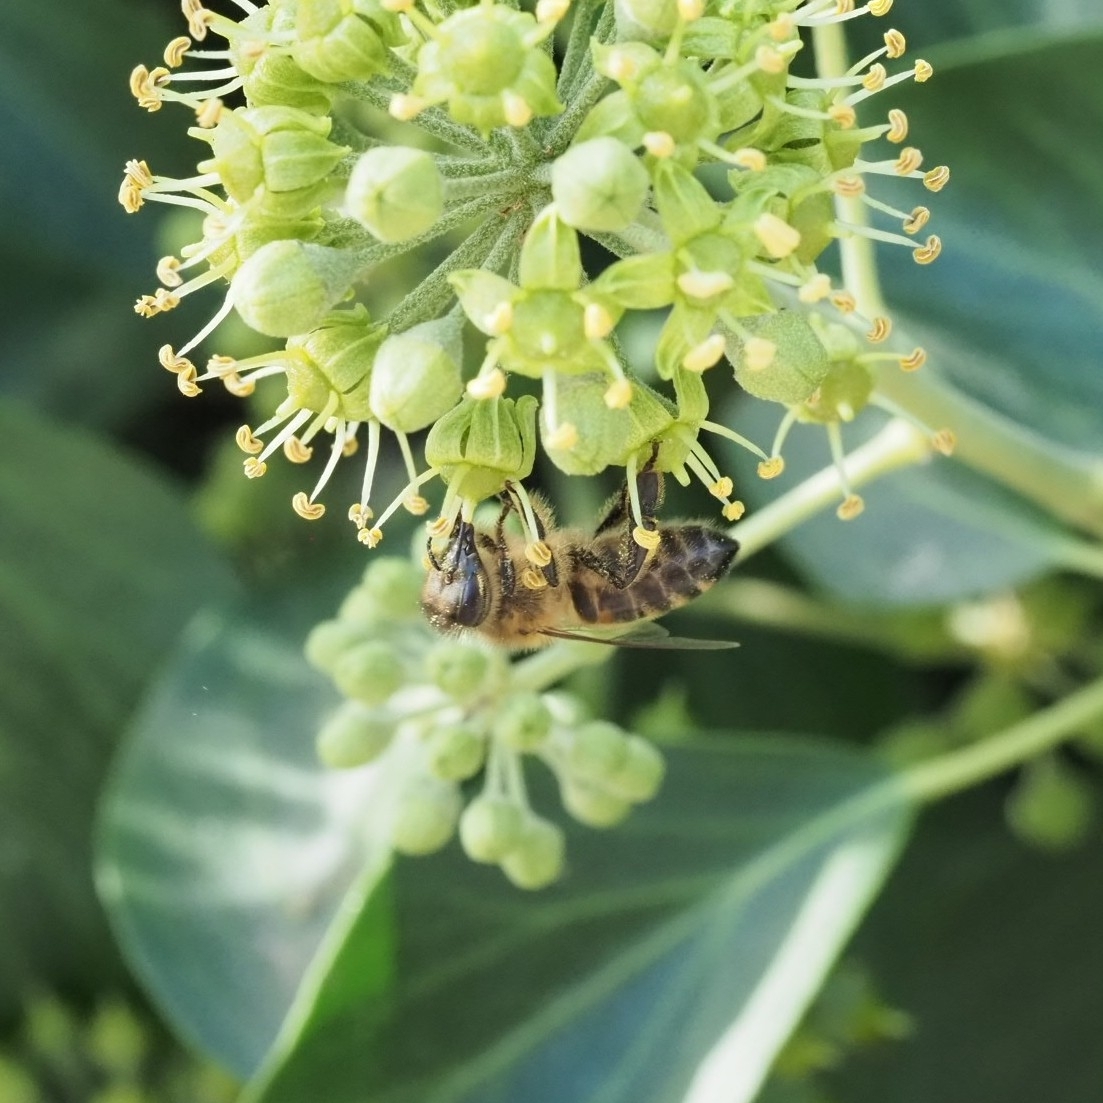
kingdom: Animalia
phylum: Arthropoda
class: Insecta
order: Hymenoptera
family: Apidae
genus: Apis
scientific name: Apis mellifera
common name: Honey bee
